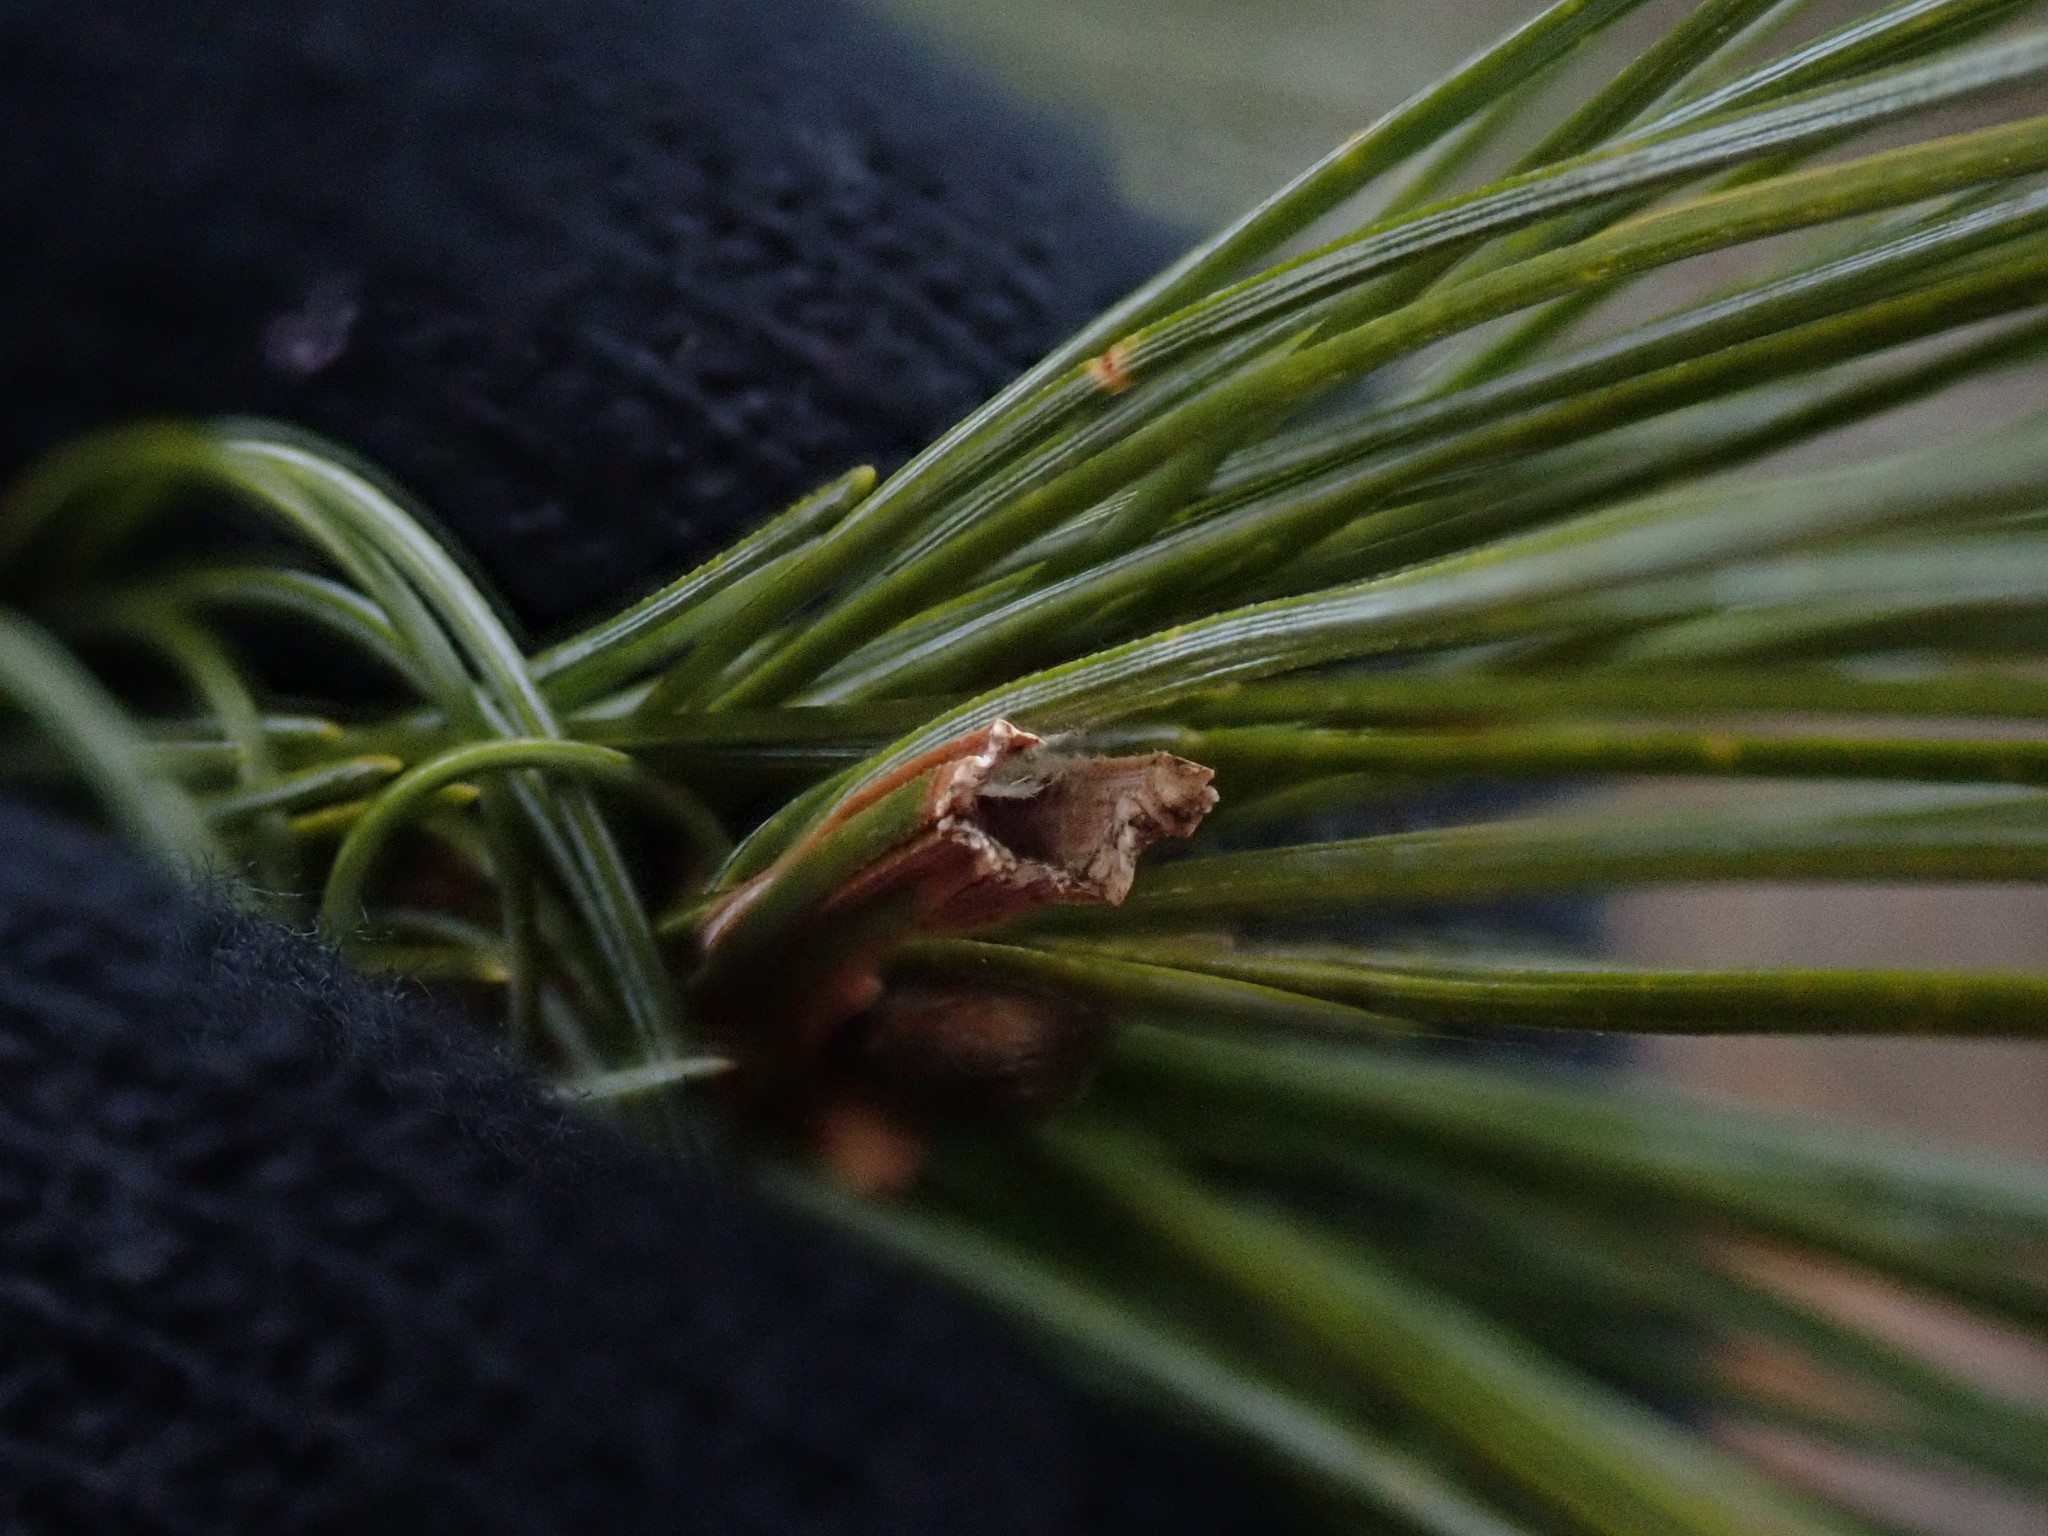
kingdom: Animalia
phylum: Arthropoda
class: Insecta
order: Lepidoptera
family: Tortricidae
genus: Argyrotaenia
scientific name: Argyrotaenia pinatubana
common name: Pine tube moth
